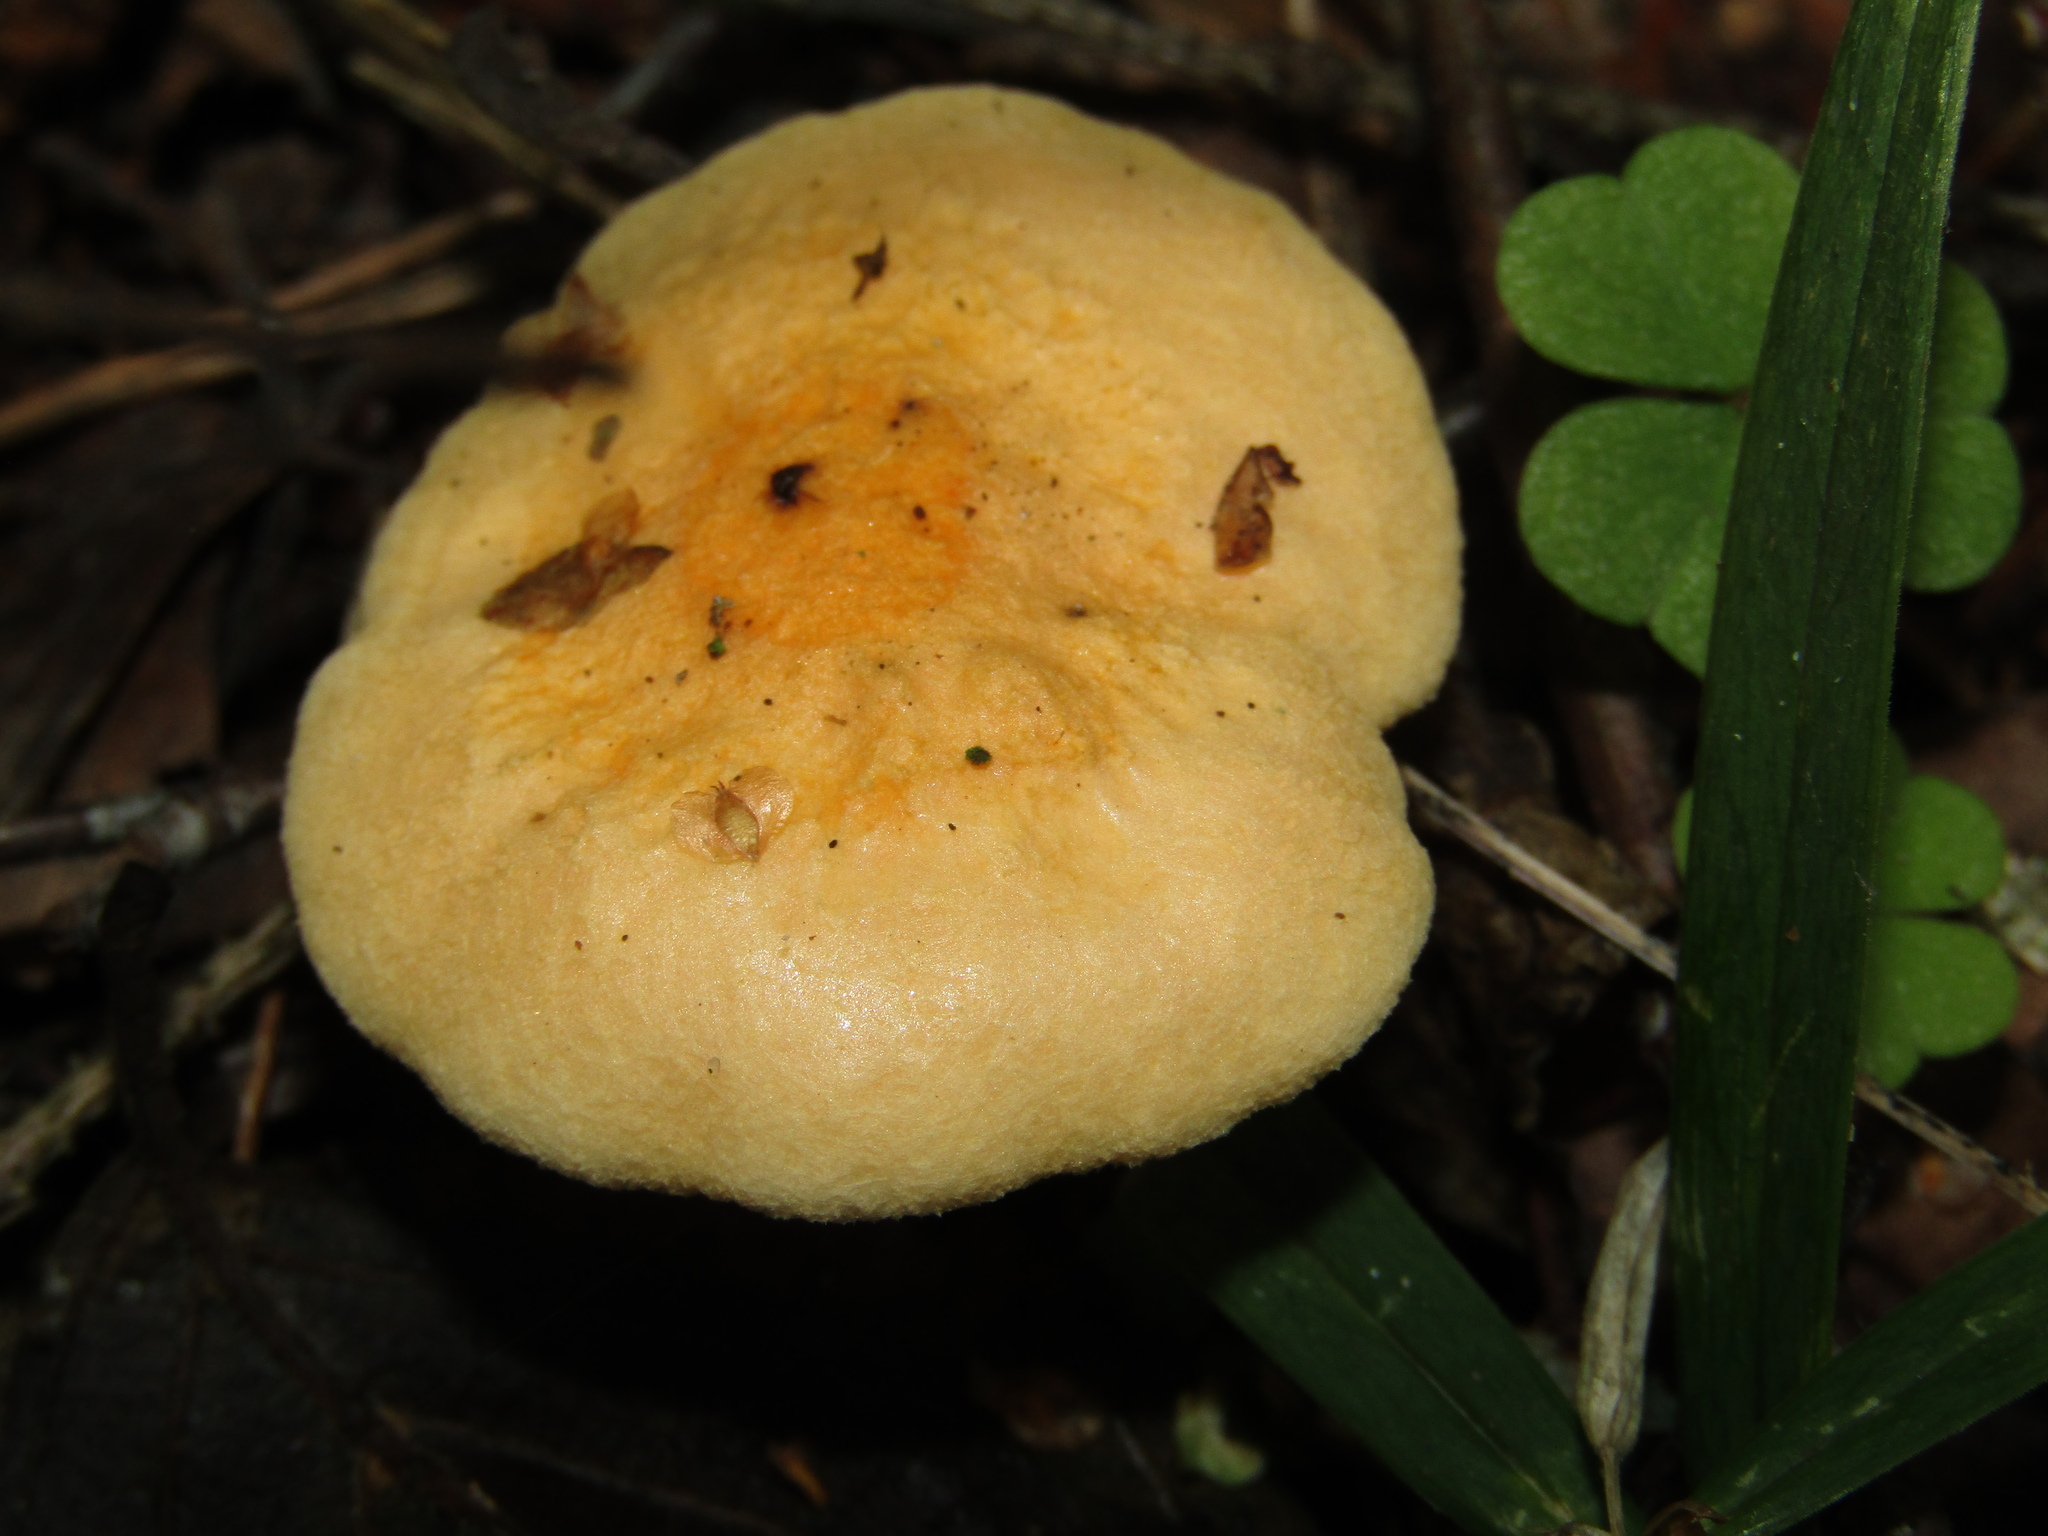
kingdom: Fungi
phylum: Basidiomycota
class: Agaricomycetes
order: Boletales
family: Hygrophoropsidaceae
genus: Hygrophoropsis
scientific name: Hygrophoropsis aurantiaca
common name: False chanterelle
